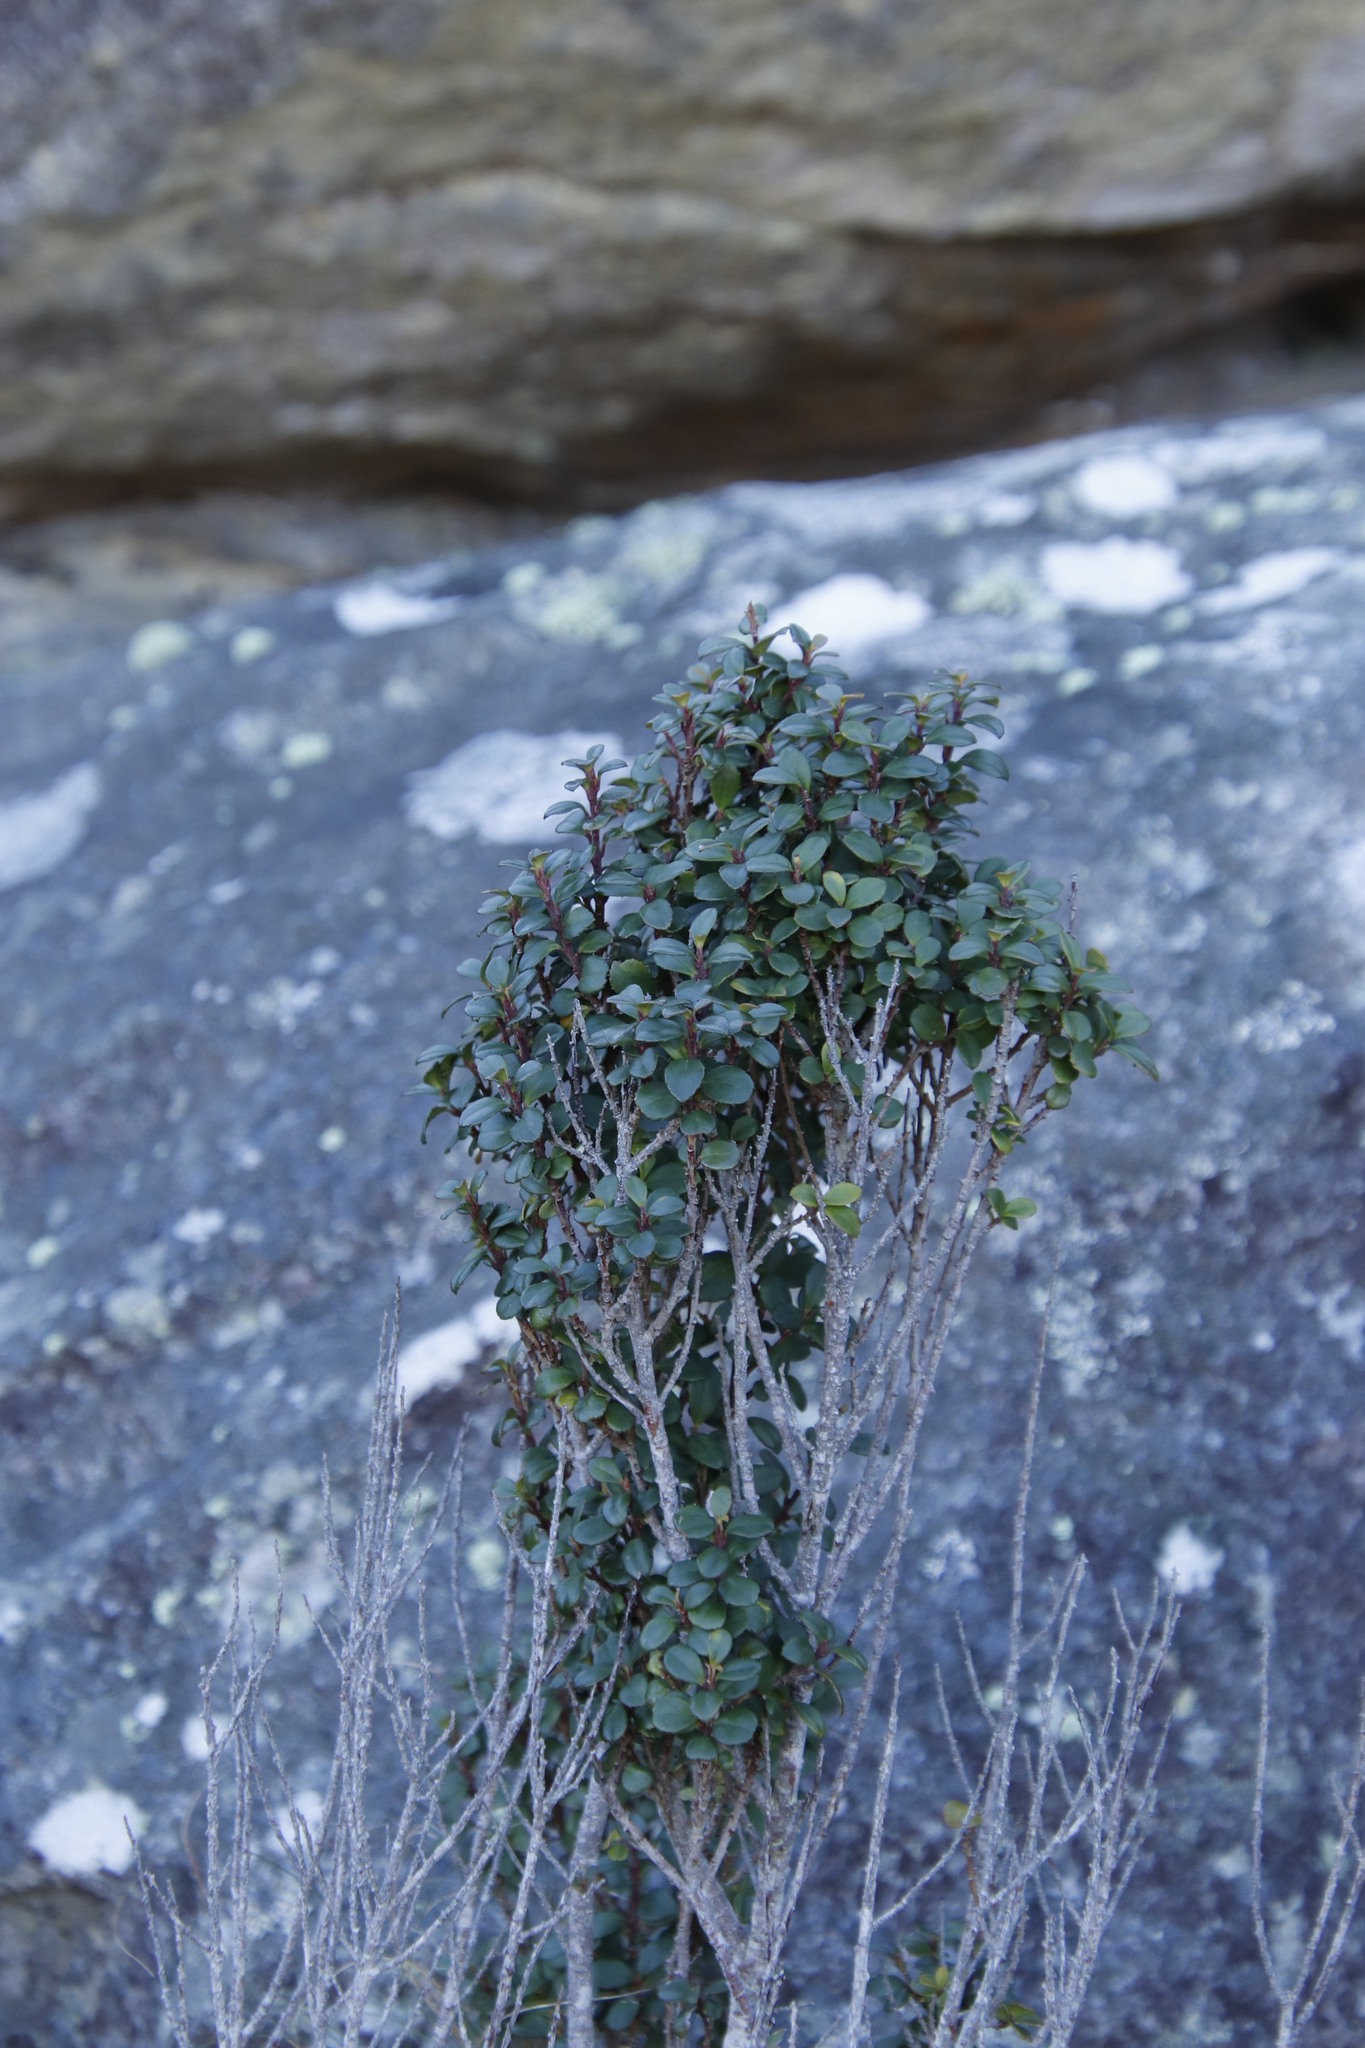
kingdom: Plantae
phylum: Tracheophyta
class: Magnoliopsida
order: Ericales
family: Primulaceae
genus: Myrsine
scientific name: Myrsine africana
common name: African-boxwood
